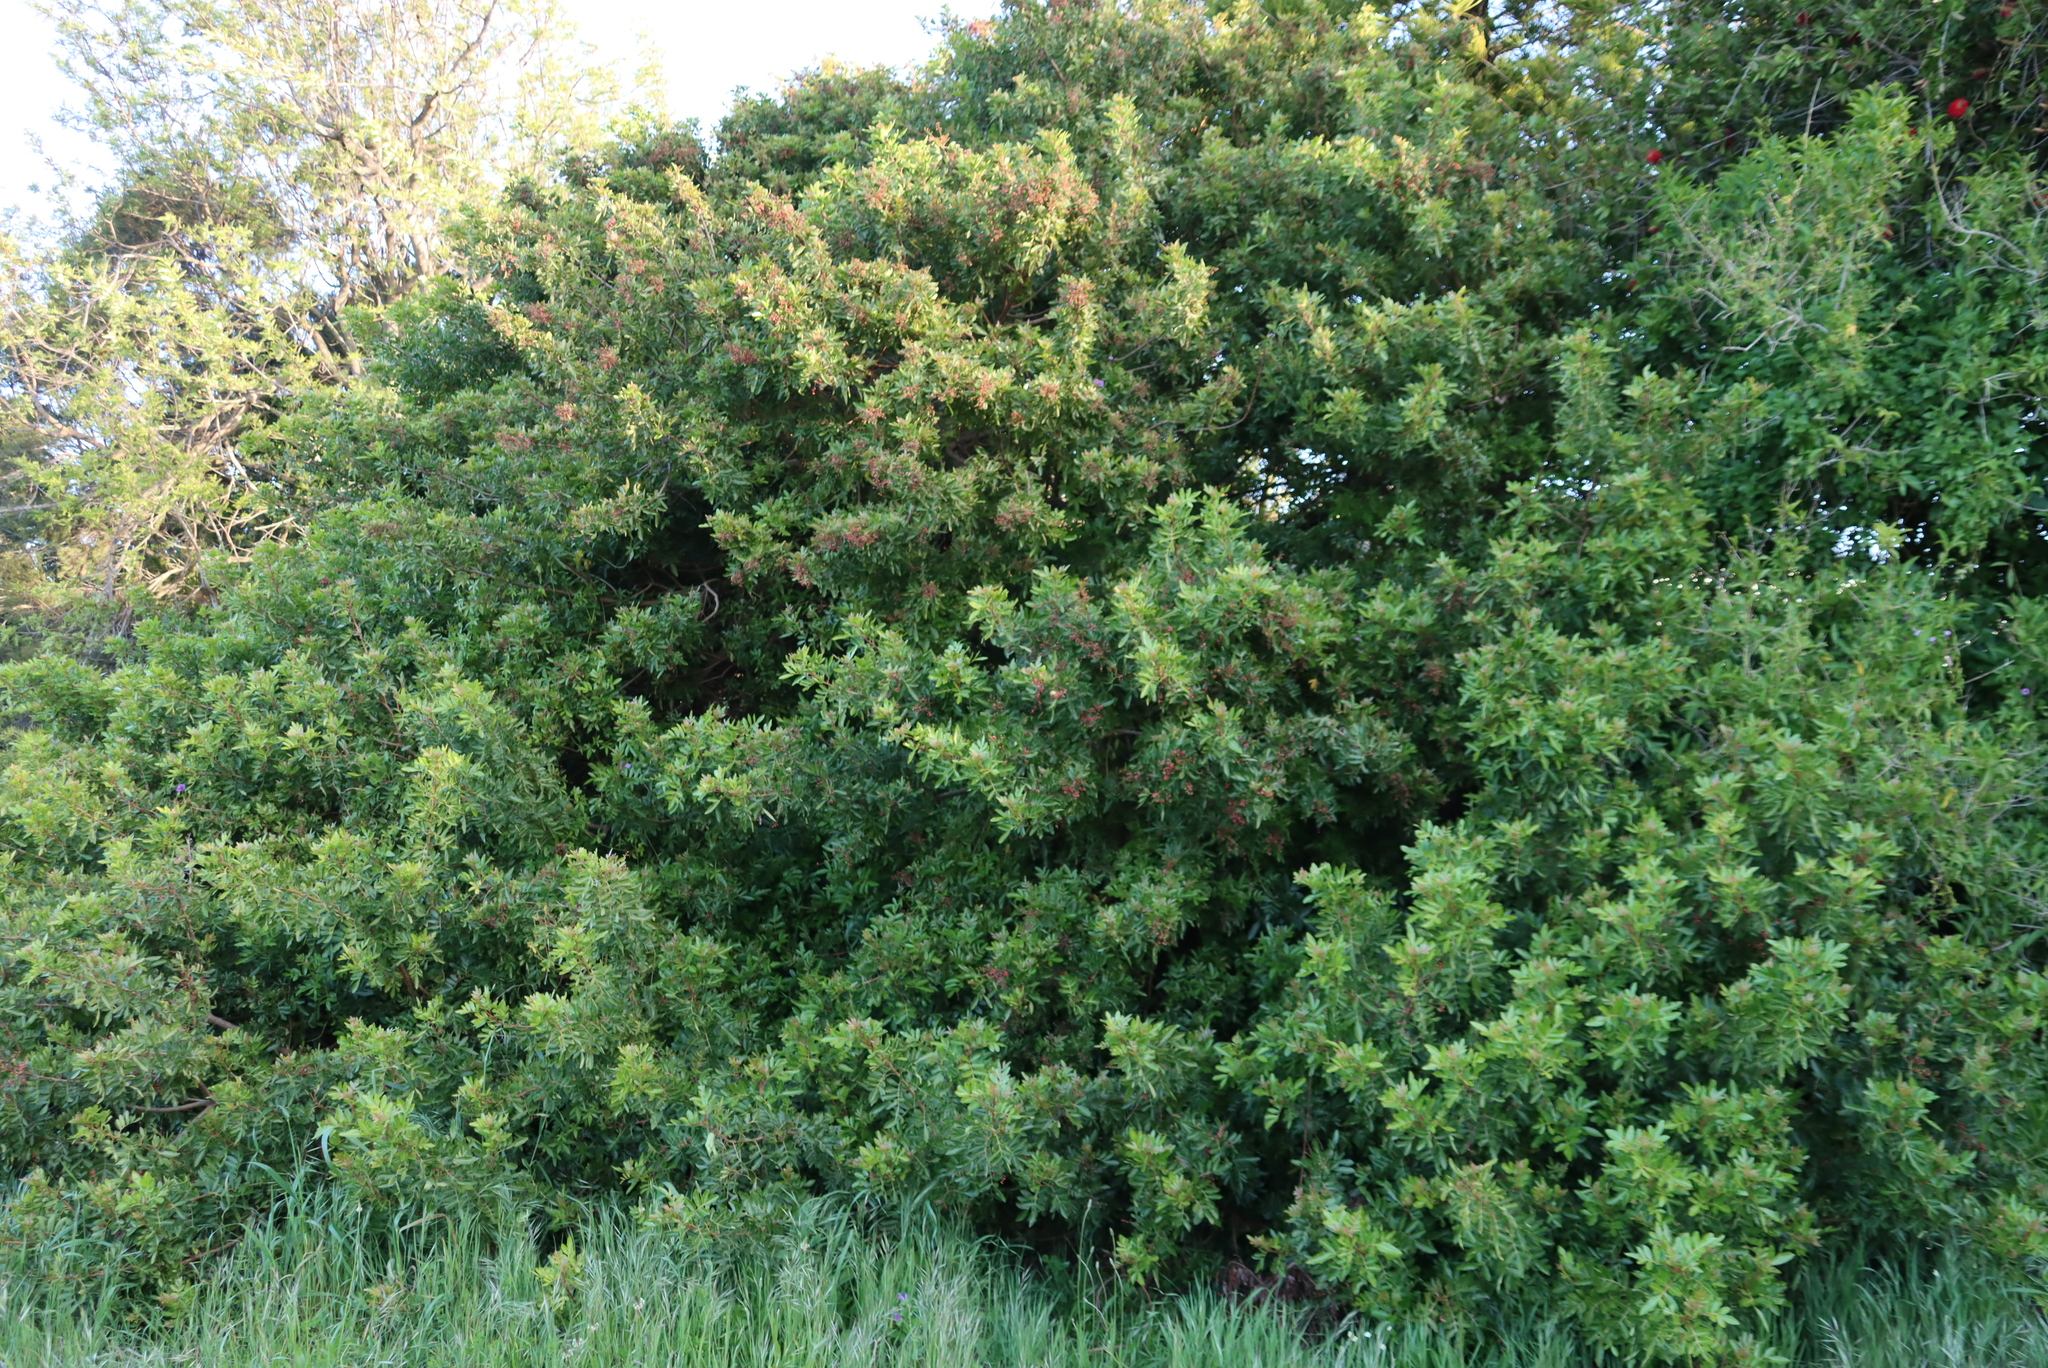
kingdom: Plantae
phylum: Tracheophyta
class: Magnoliopsida
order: Sapindales
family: Anacardiaceae
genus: Schinus
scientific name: Schinus terebinthifolia
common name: Brazilian peppertree
